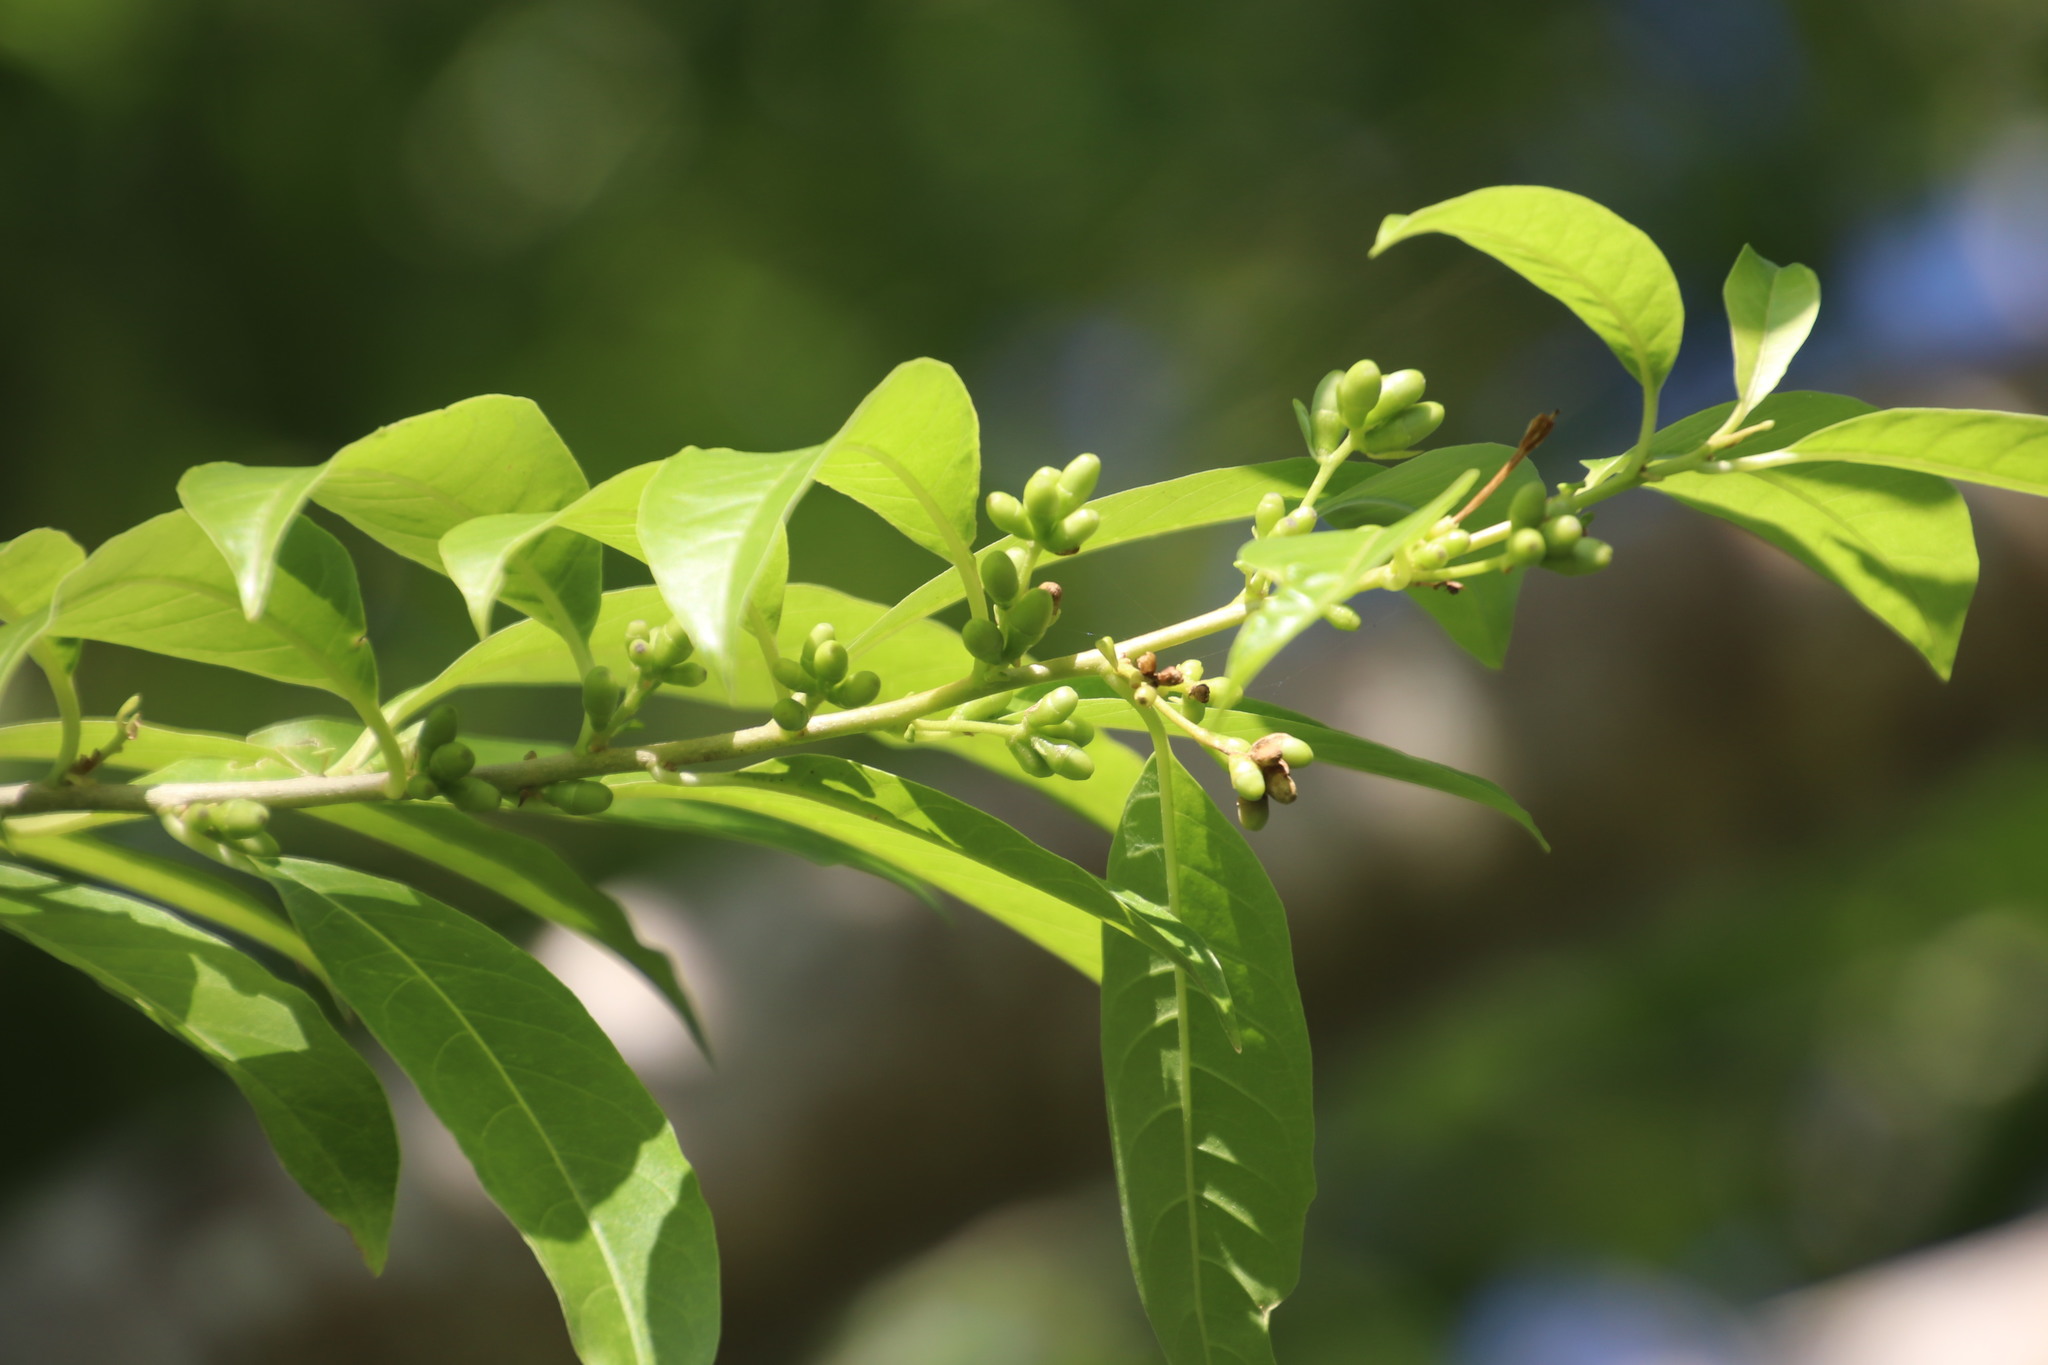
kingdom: Plantae
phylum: Tracheophyta
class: Magnoliopsida
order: Solanales
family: Solanaceae
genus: Cestrum
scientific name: Cestrum laevigatum
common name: Inkberry
